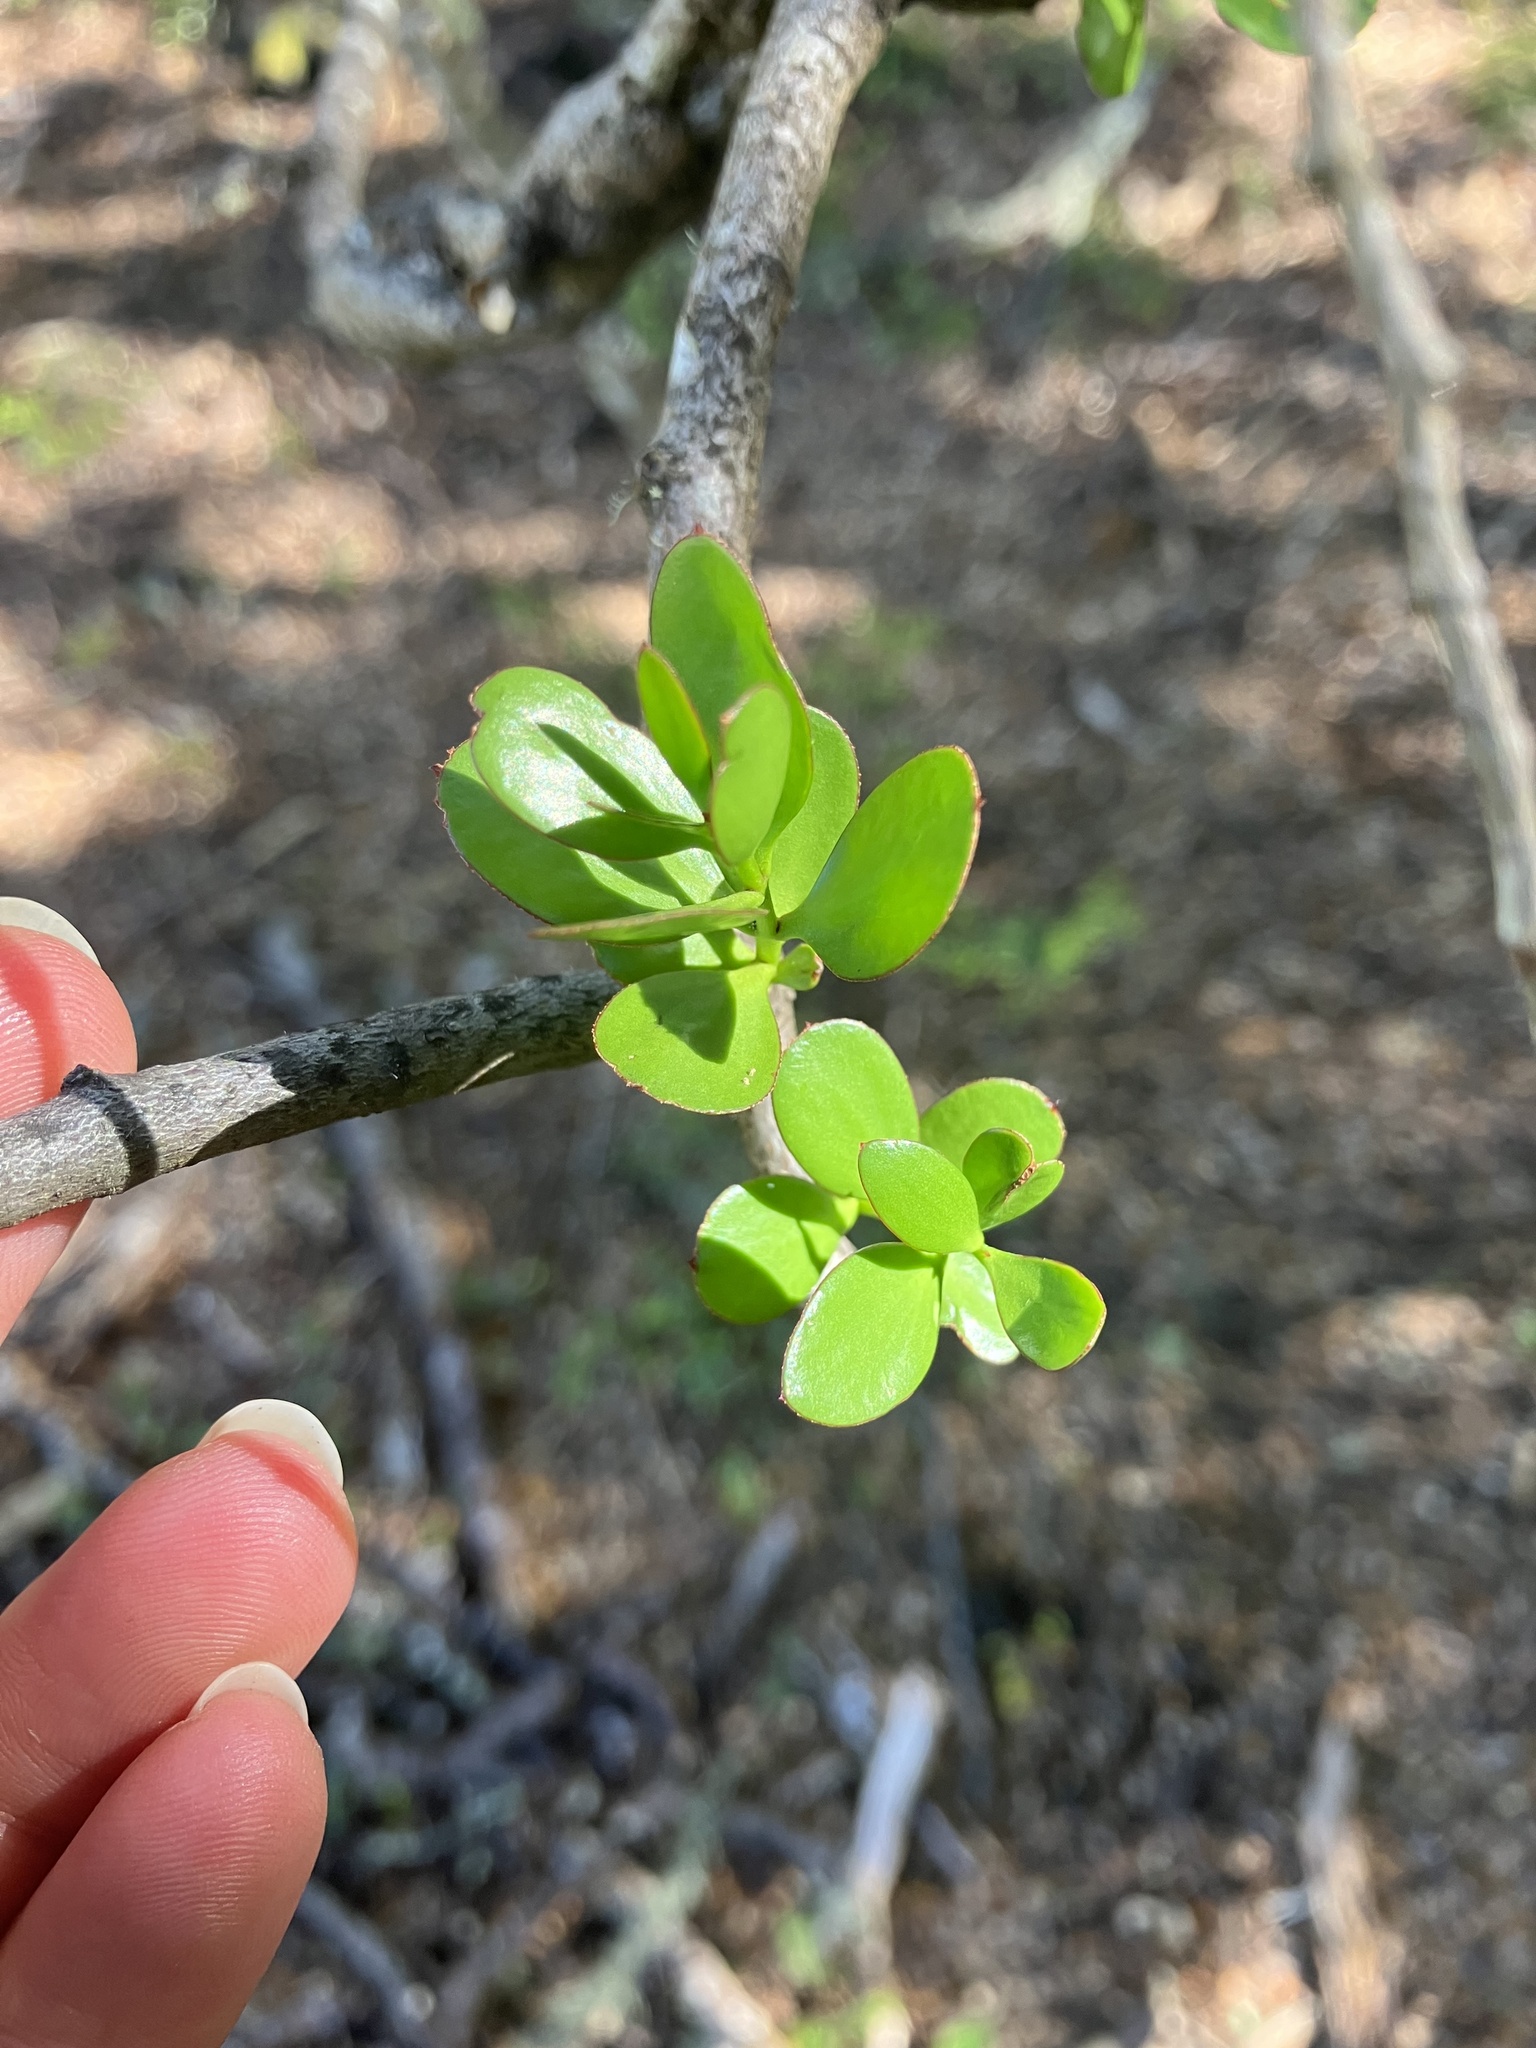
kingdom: Plantae
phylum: Tracheophyta
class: Magnoliopsida
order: Santalales
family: Loranthaceae
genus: Alepis
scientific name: Alepis flavida
